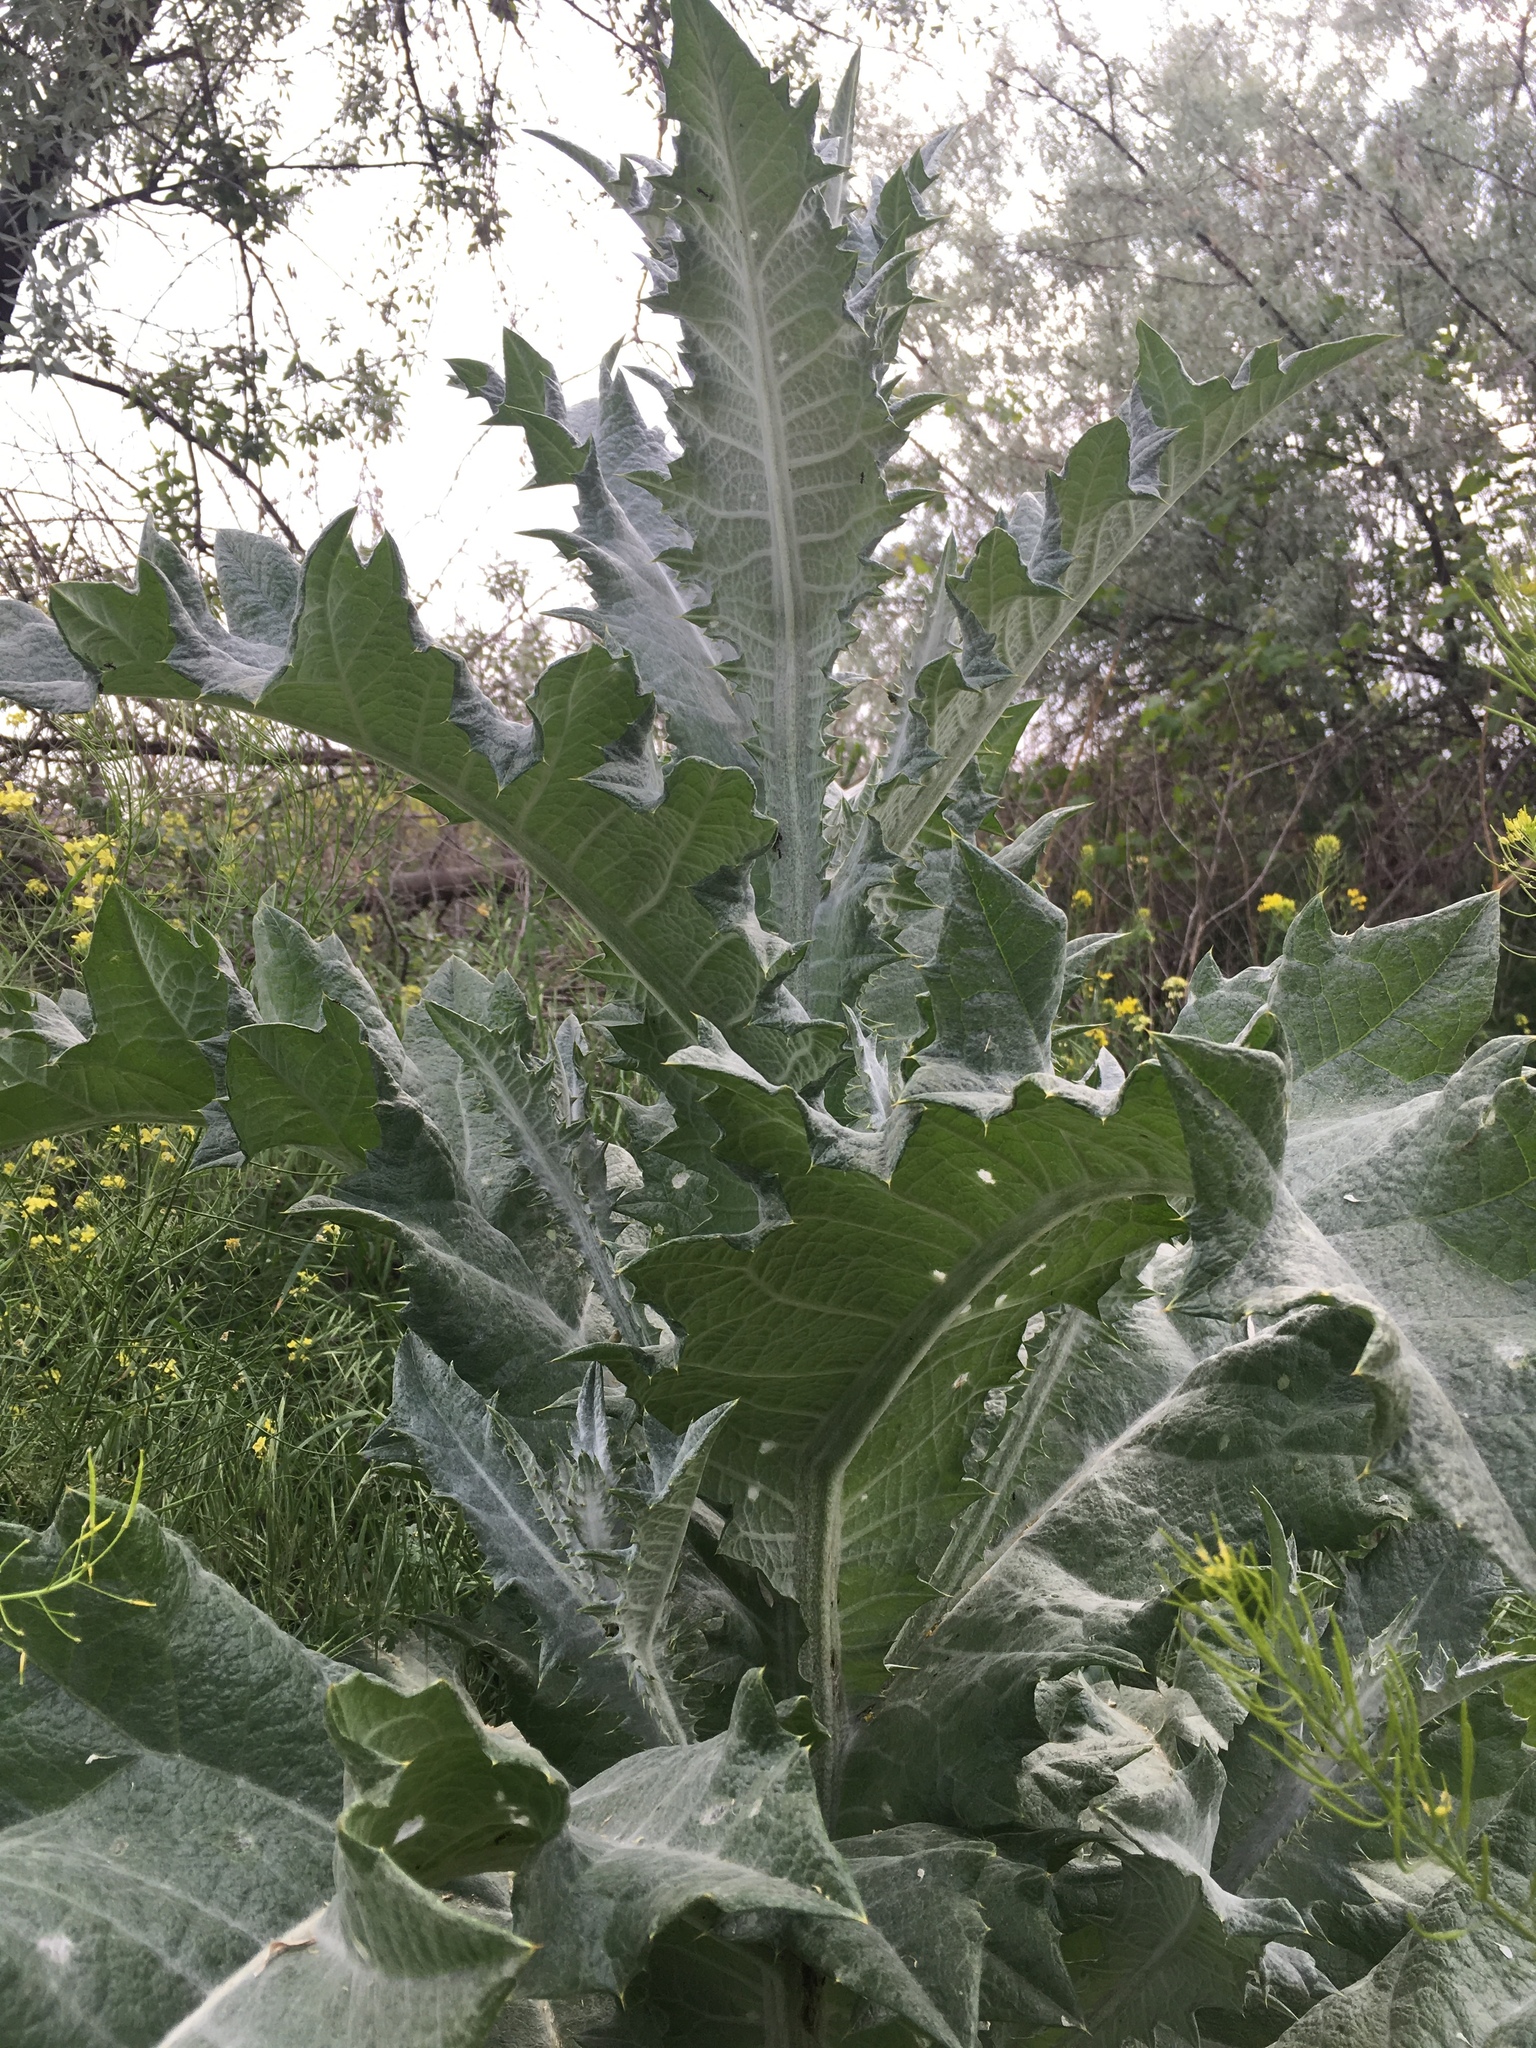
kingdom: Plantae
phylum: Tracheophyta
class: Magnoliopsida
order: Asterales
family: Asteraceae
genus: Onopordum
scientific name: Onopordum acanthium
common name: Scotch thistle
